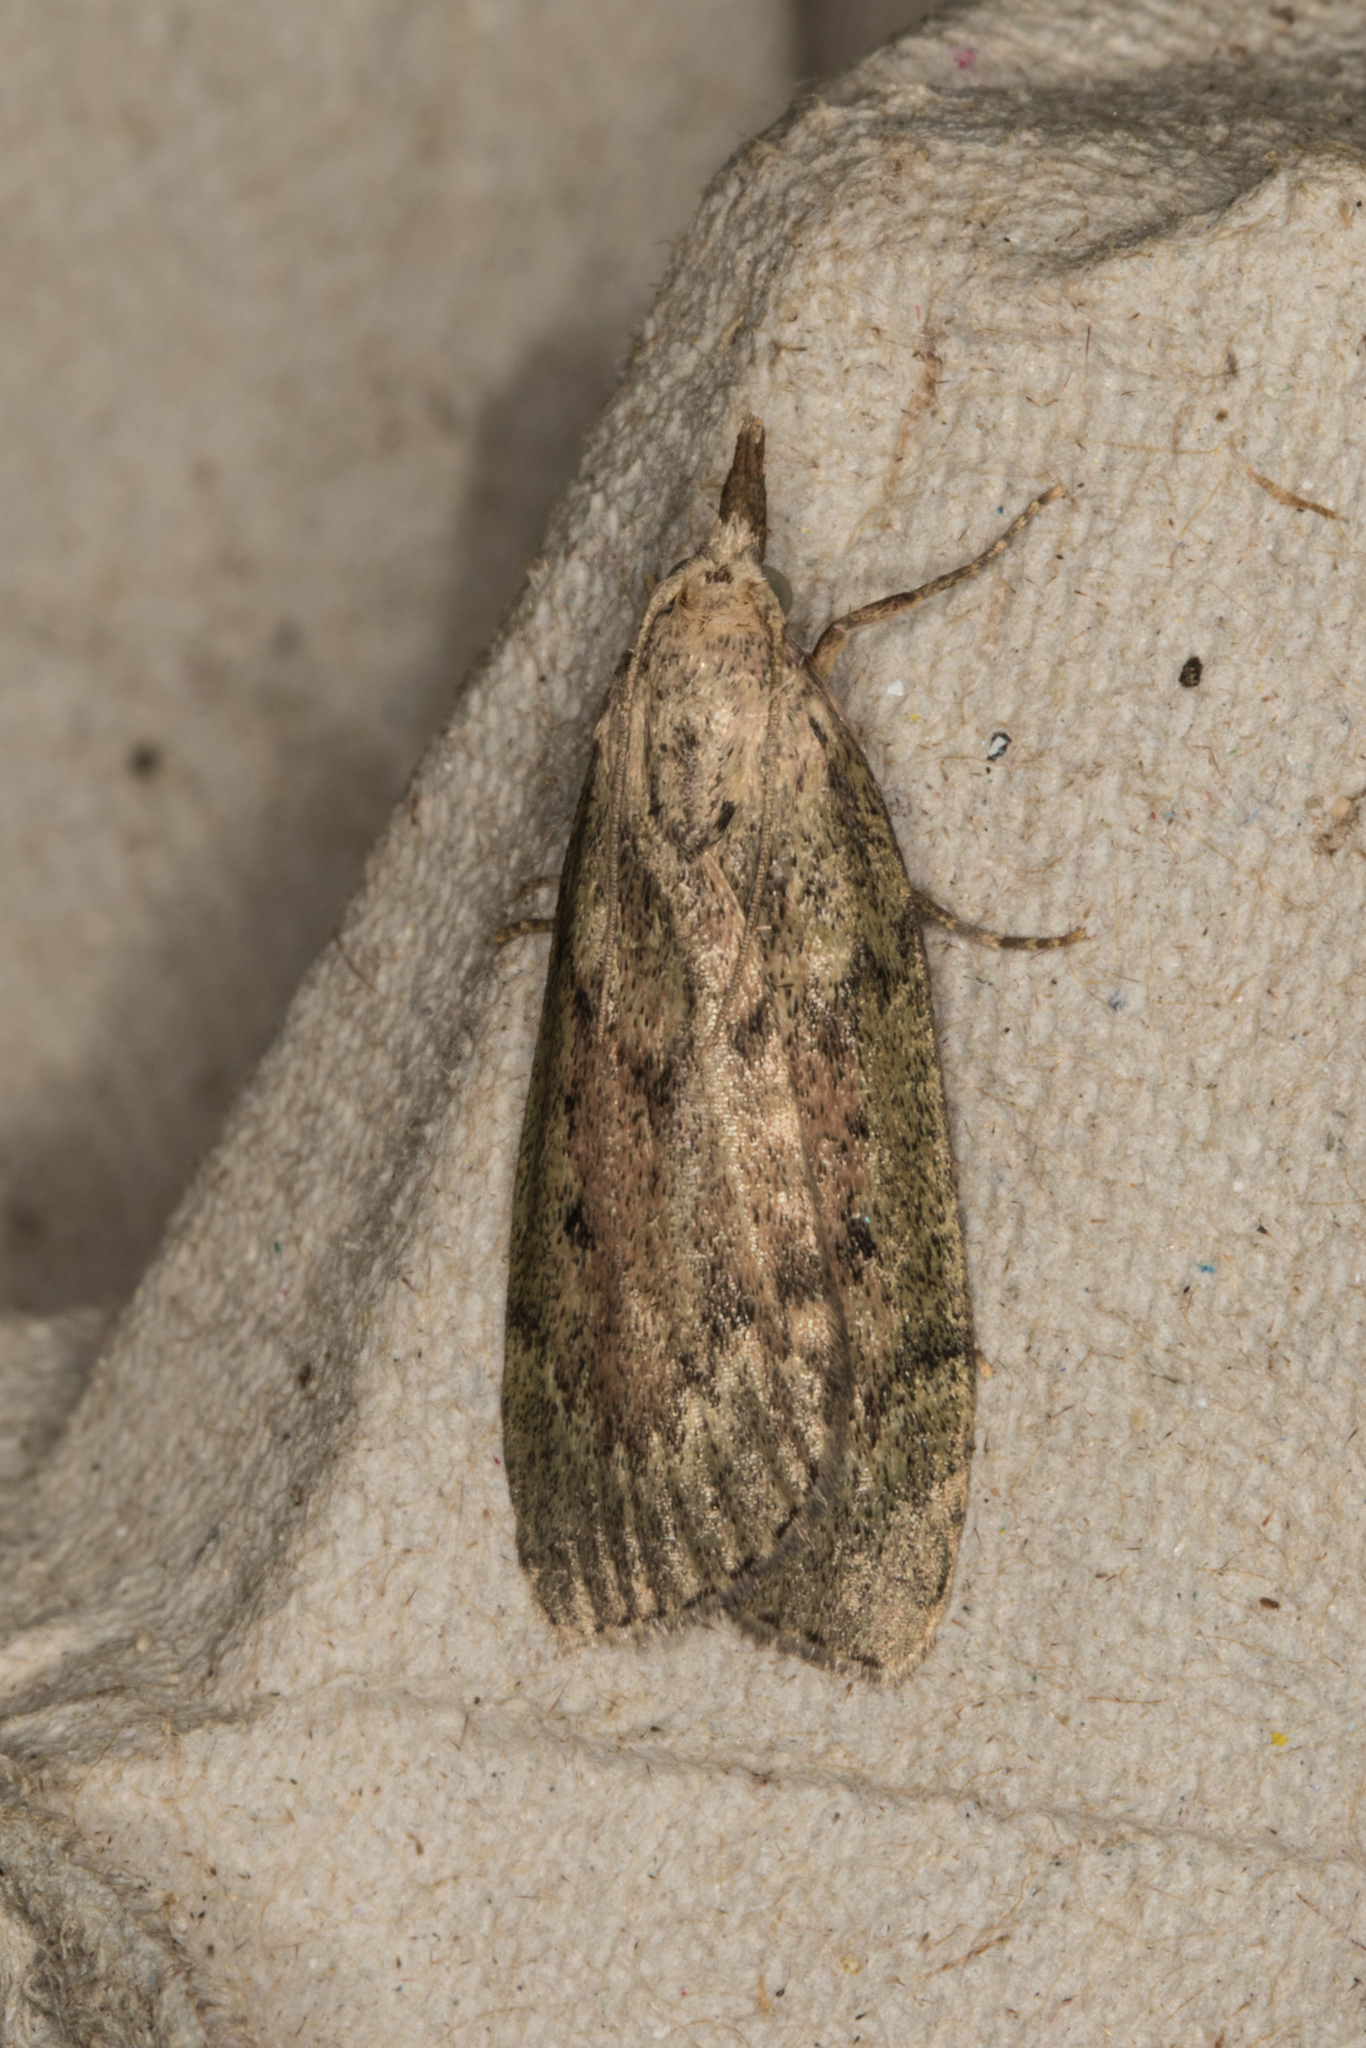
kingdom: Animalia
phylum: Arthropoda
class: Insecta
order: Lepidoptera
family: Pyralidae
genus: Aphomia
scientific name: Aphomia sociella
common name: Bee moth
